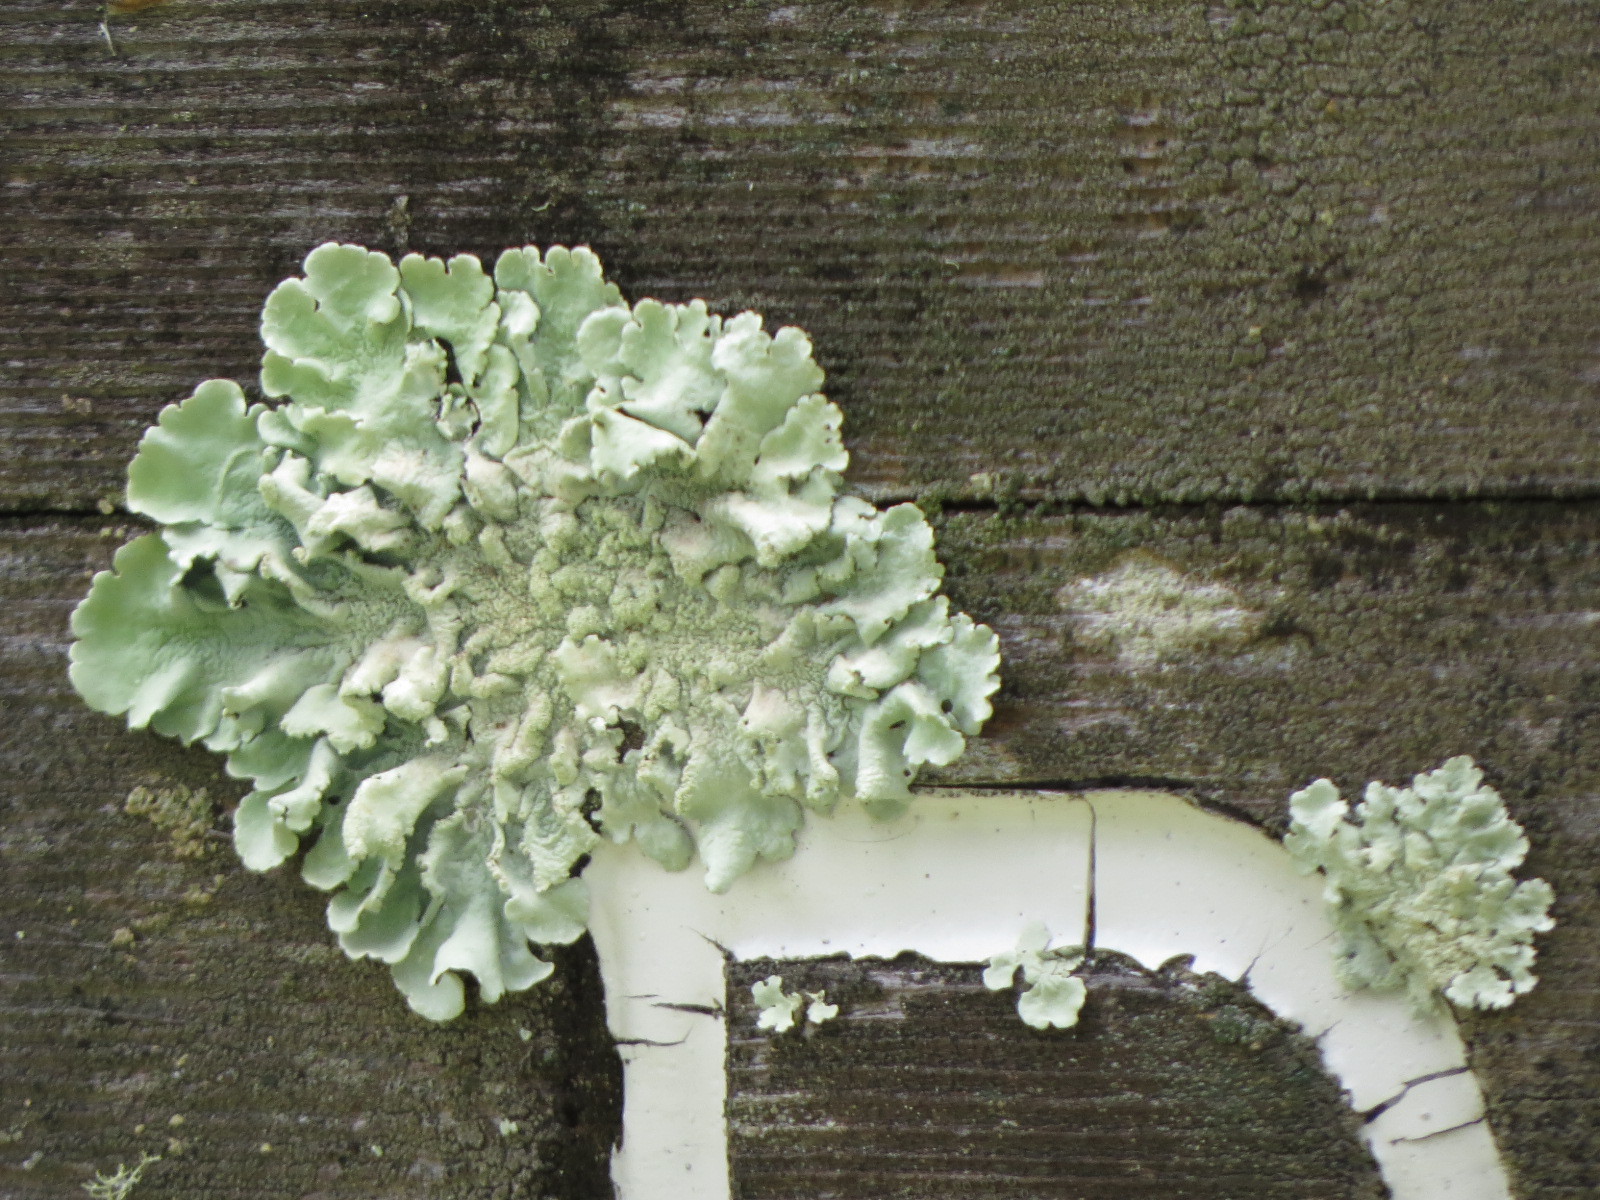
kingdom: Fungi
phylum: Ascomycota
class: Lecanoromycetes
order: Lecanorales
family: Parmeliaceae
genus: Flavoparmelia
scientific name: Flavoparmelia caperata
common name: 40-mile per hour lichen
